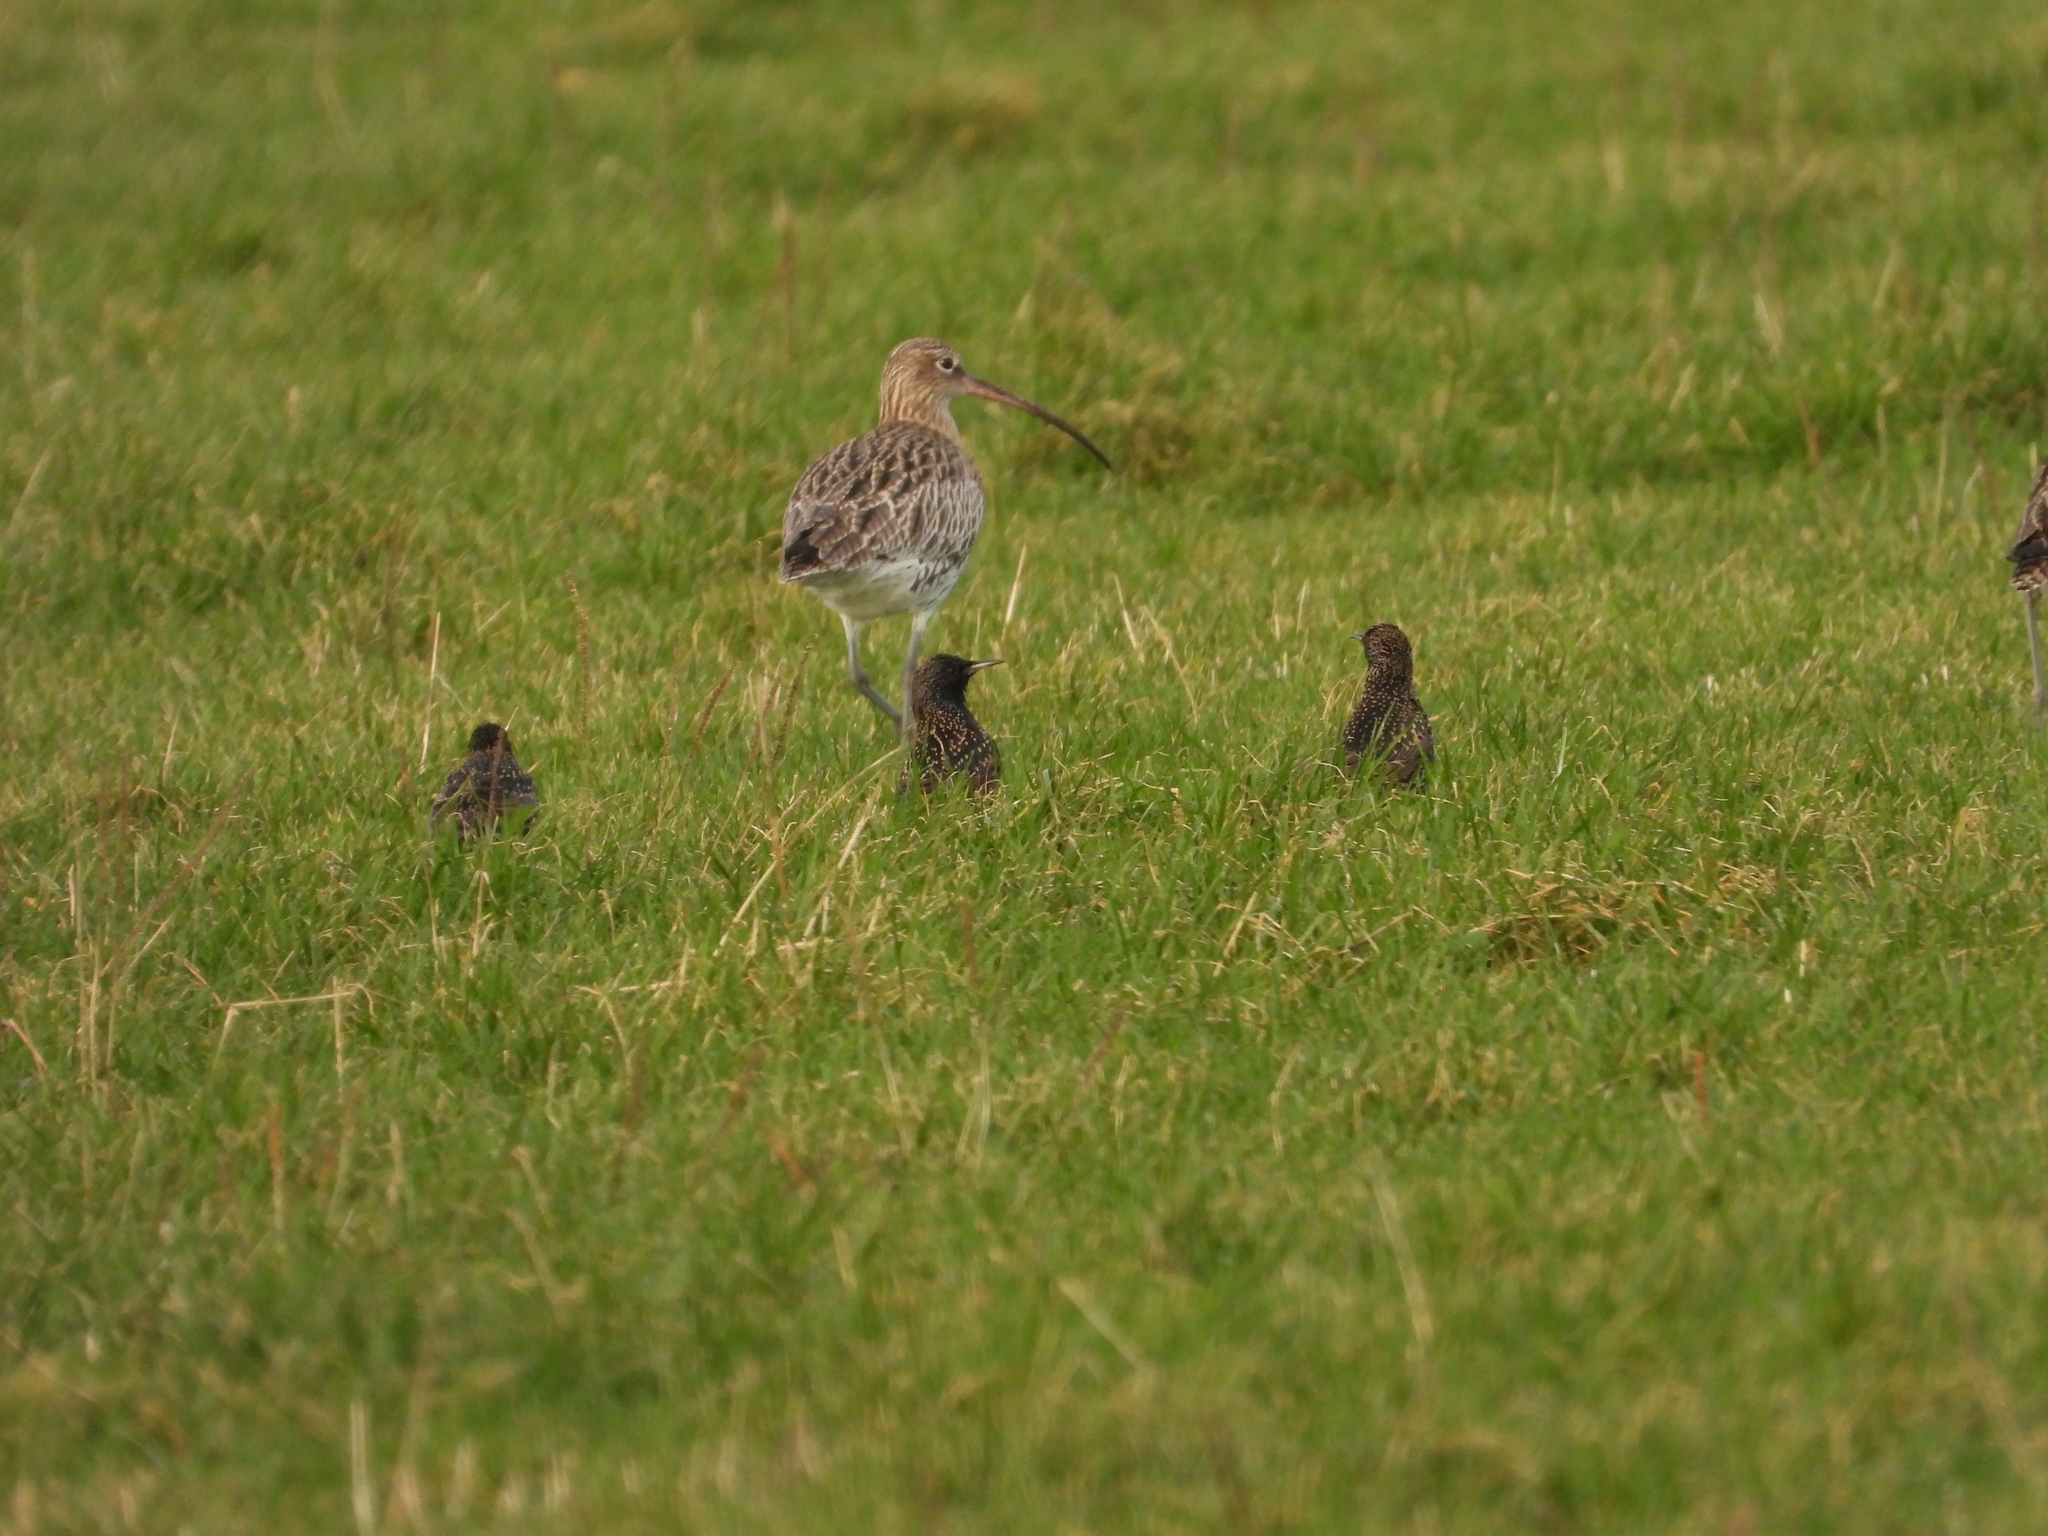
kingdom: Animalia
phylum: Chordata
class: Aves
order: Passeriformes
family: Sturnidae
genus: Sturnus
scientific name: Sturnus vulgaris
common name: Common starling
